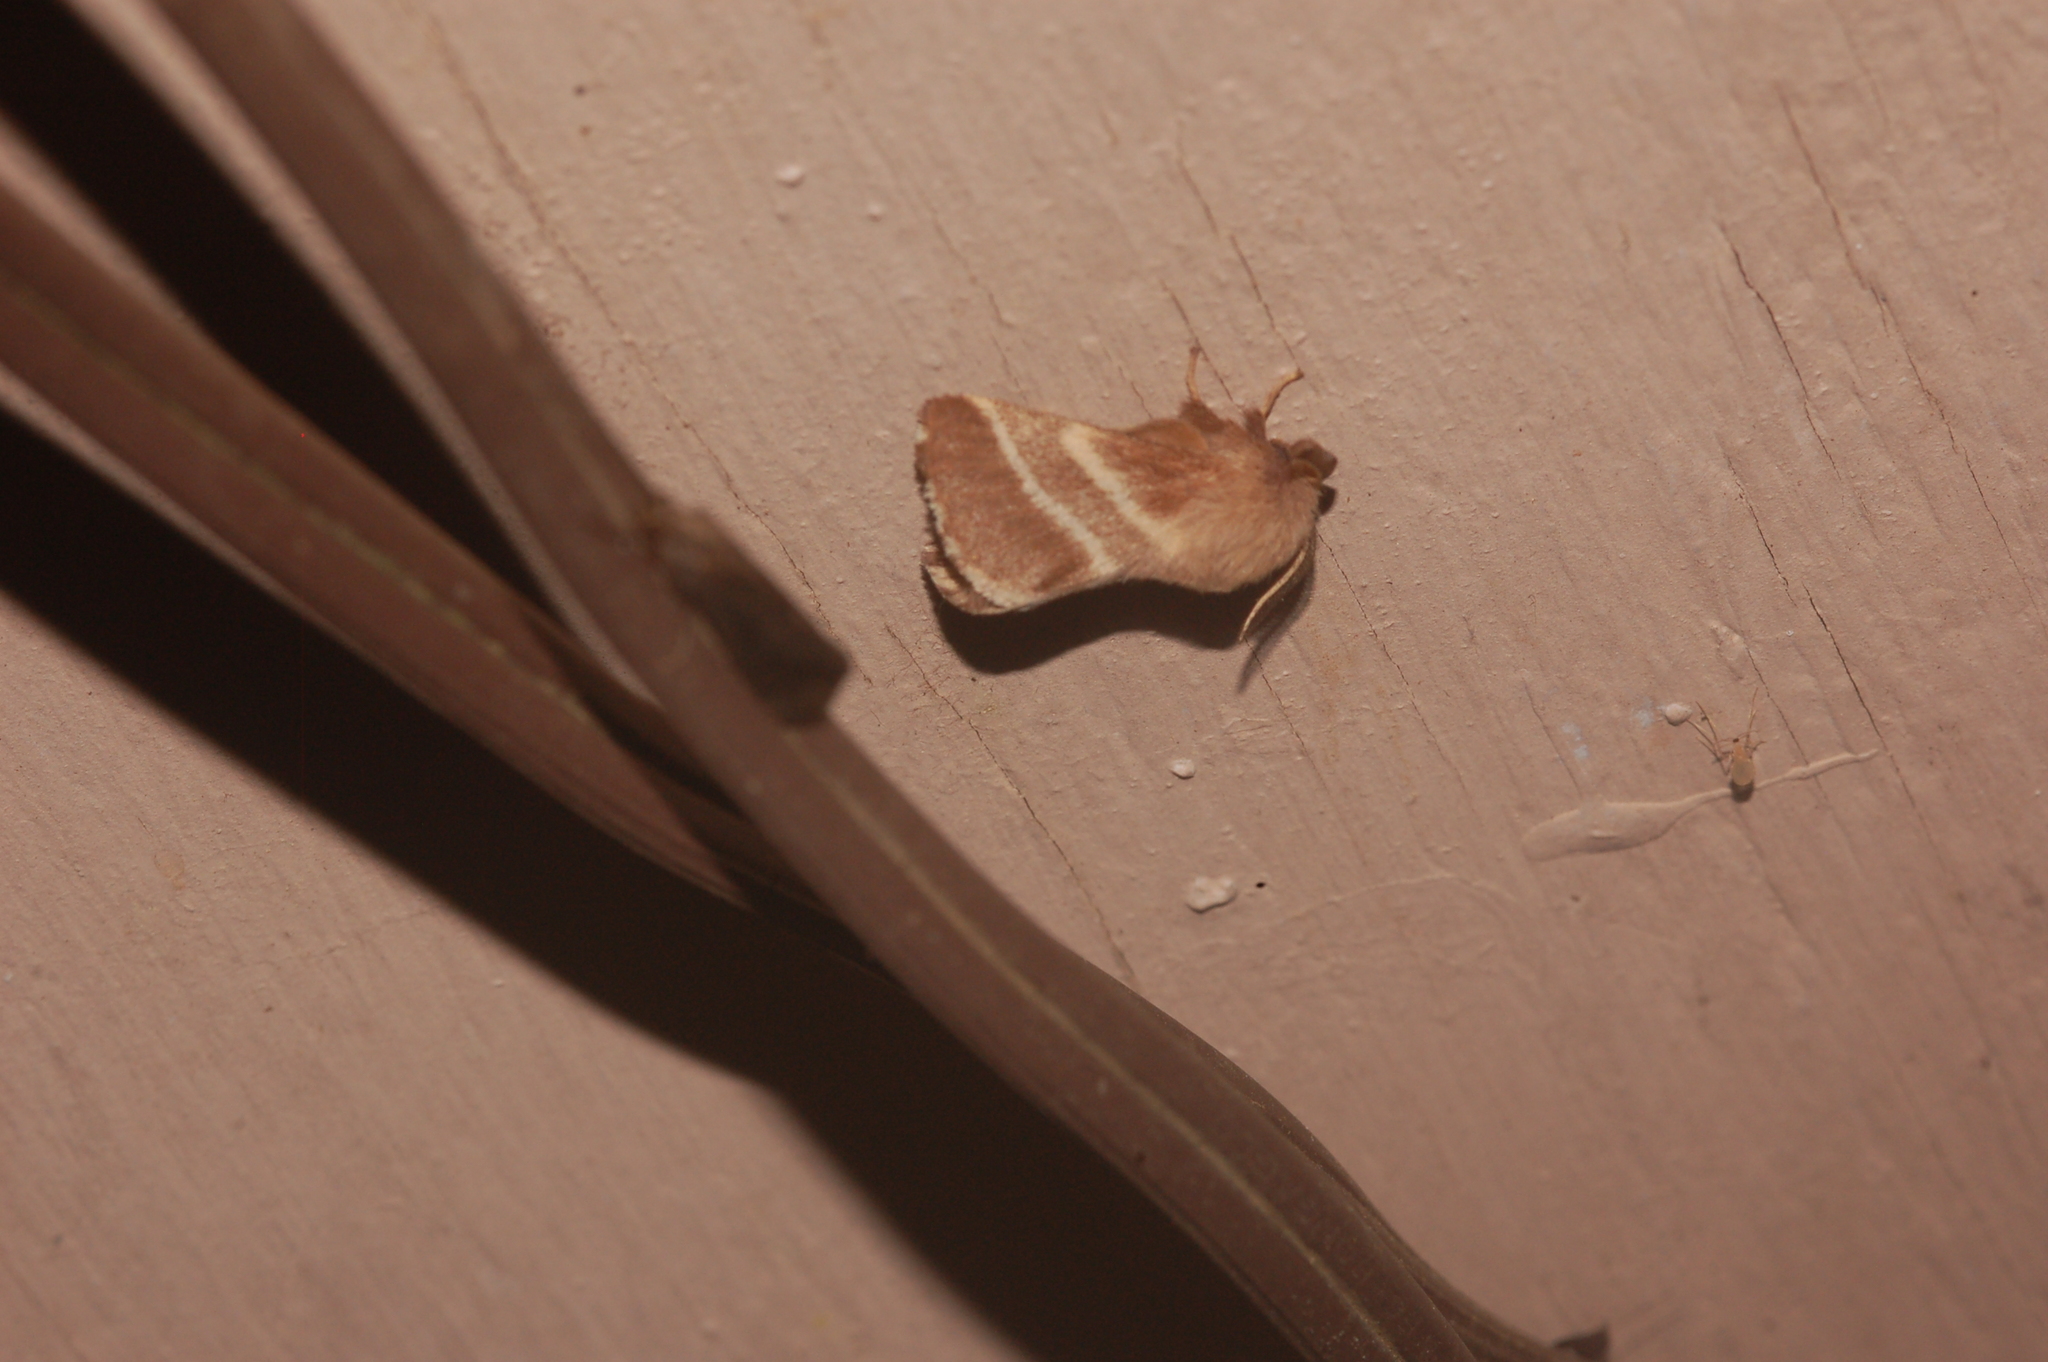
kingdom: Animalia
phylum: Arthropoda
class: Insecta
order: Lepidoptera
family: Lasiocampidae
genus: Malacosoma
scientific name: Malacosoma americana
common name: Eastern tent caterpillar moth
